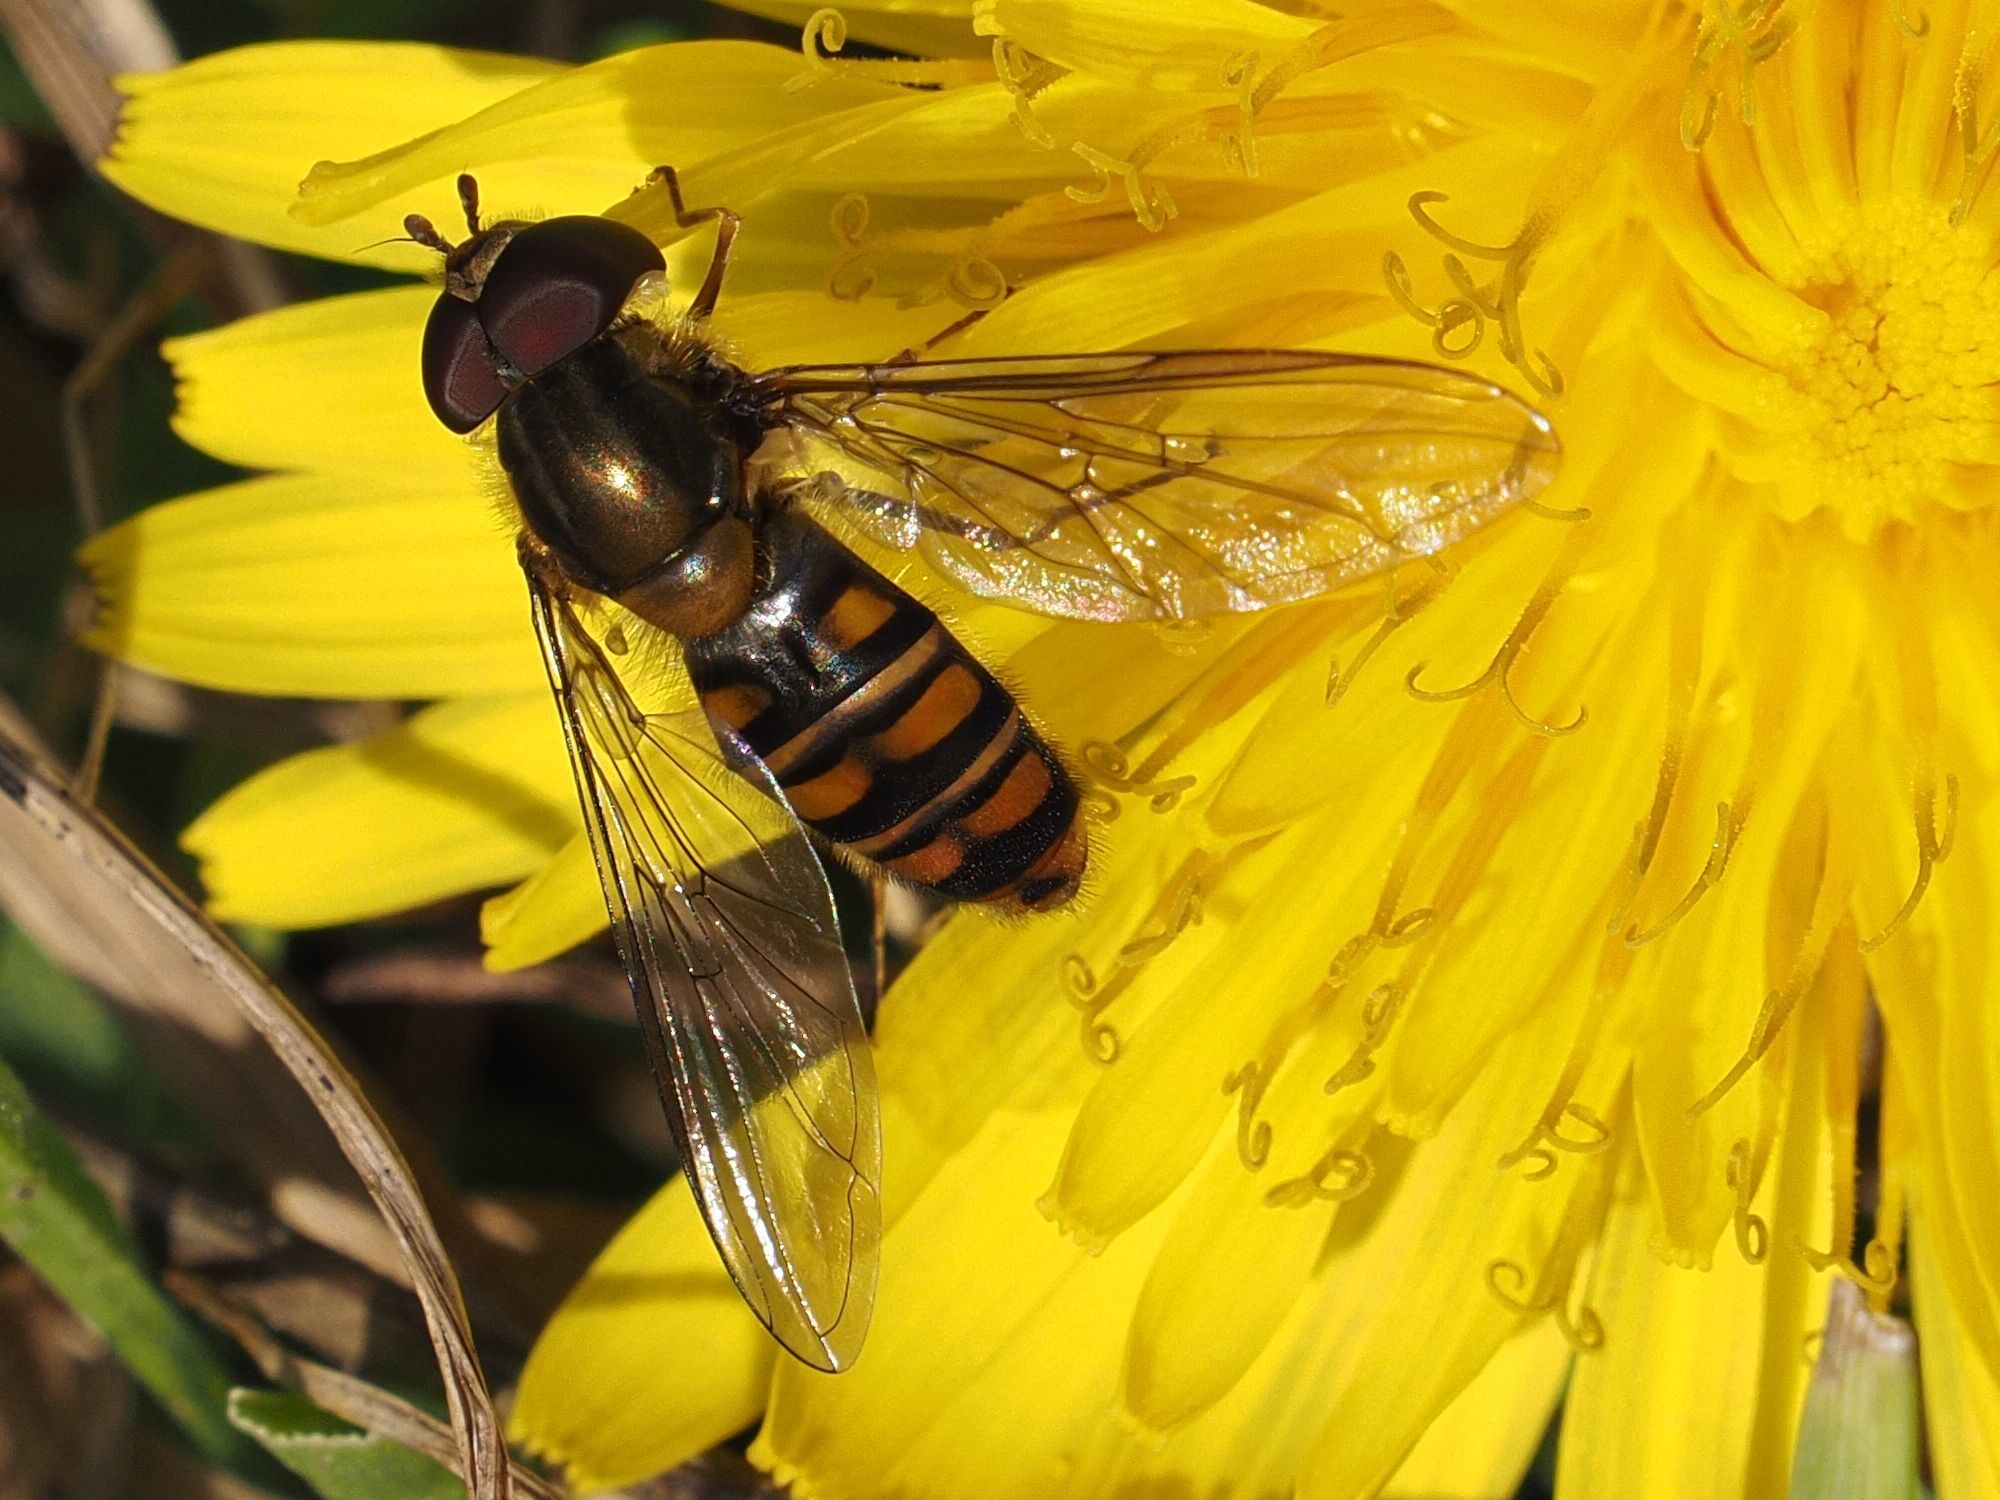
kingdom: Animalia
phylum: Arthropoda
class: Insecta
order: Diptera
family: Syrphidae
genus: Episyrphus
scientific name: Episyrphus balteatus
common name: Marmalade hoverfly
